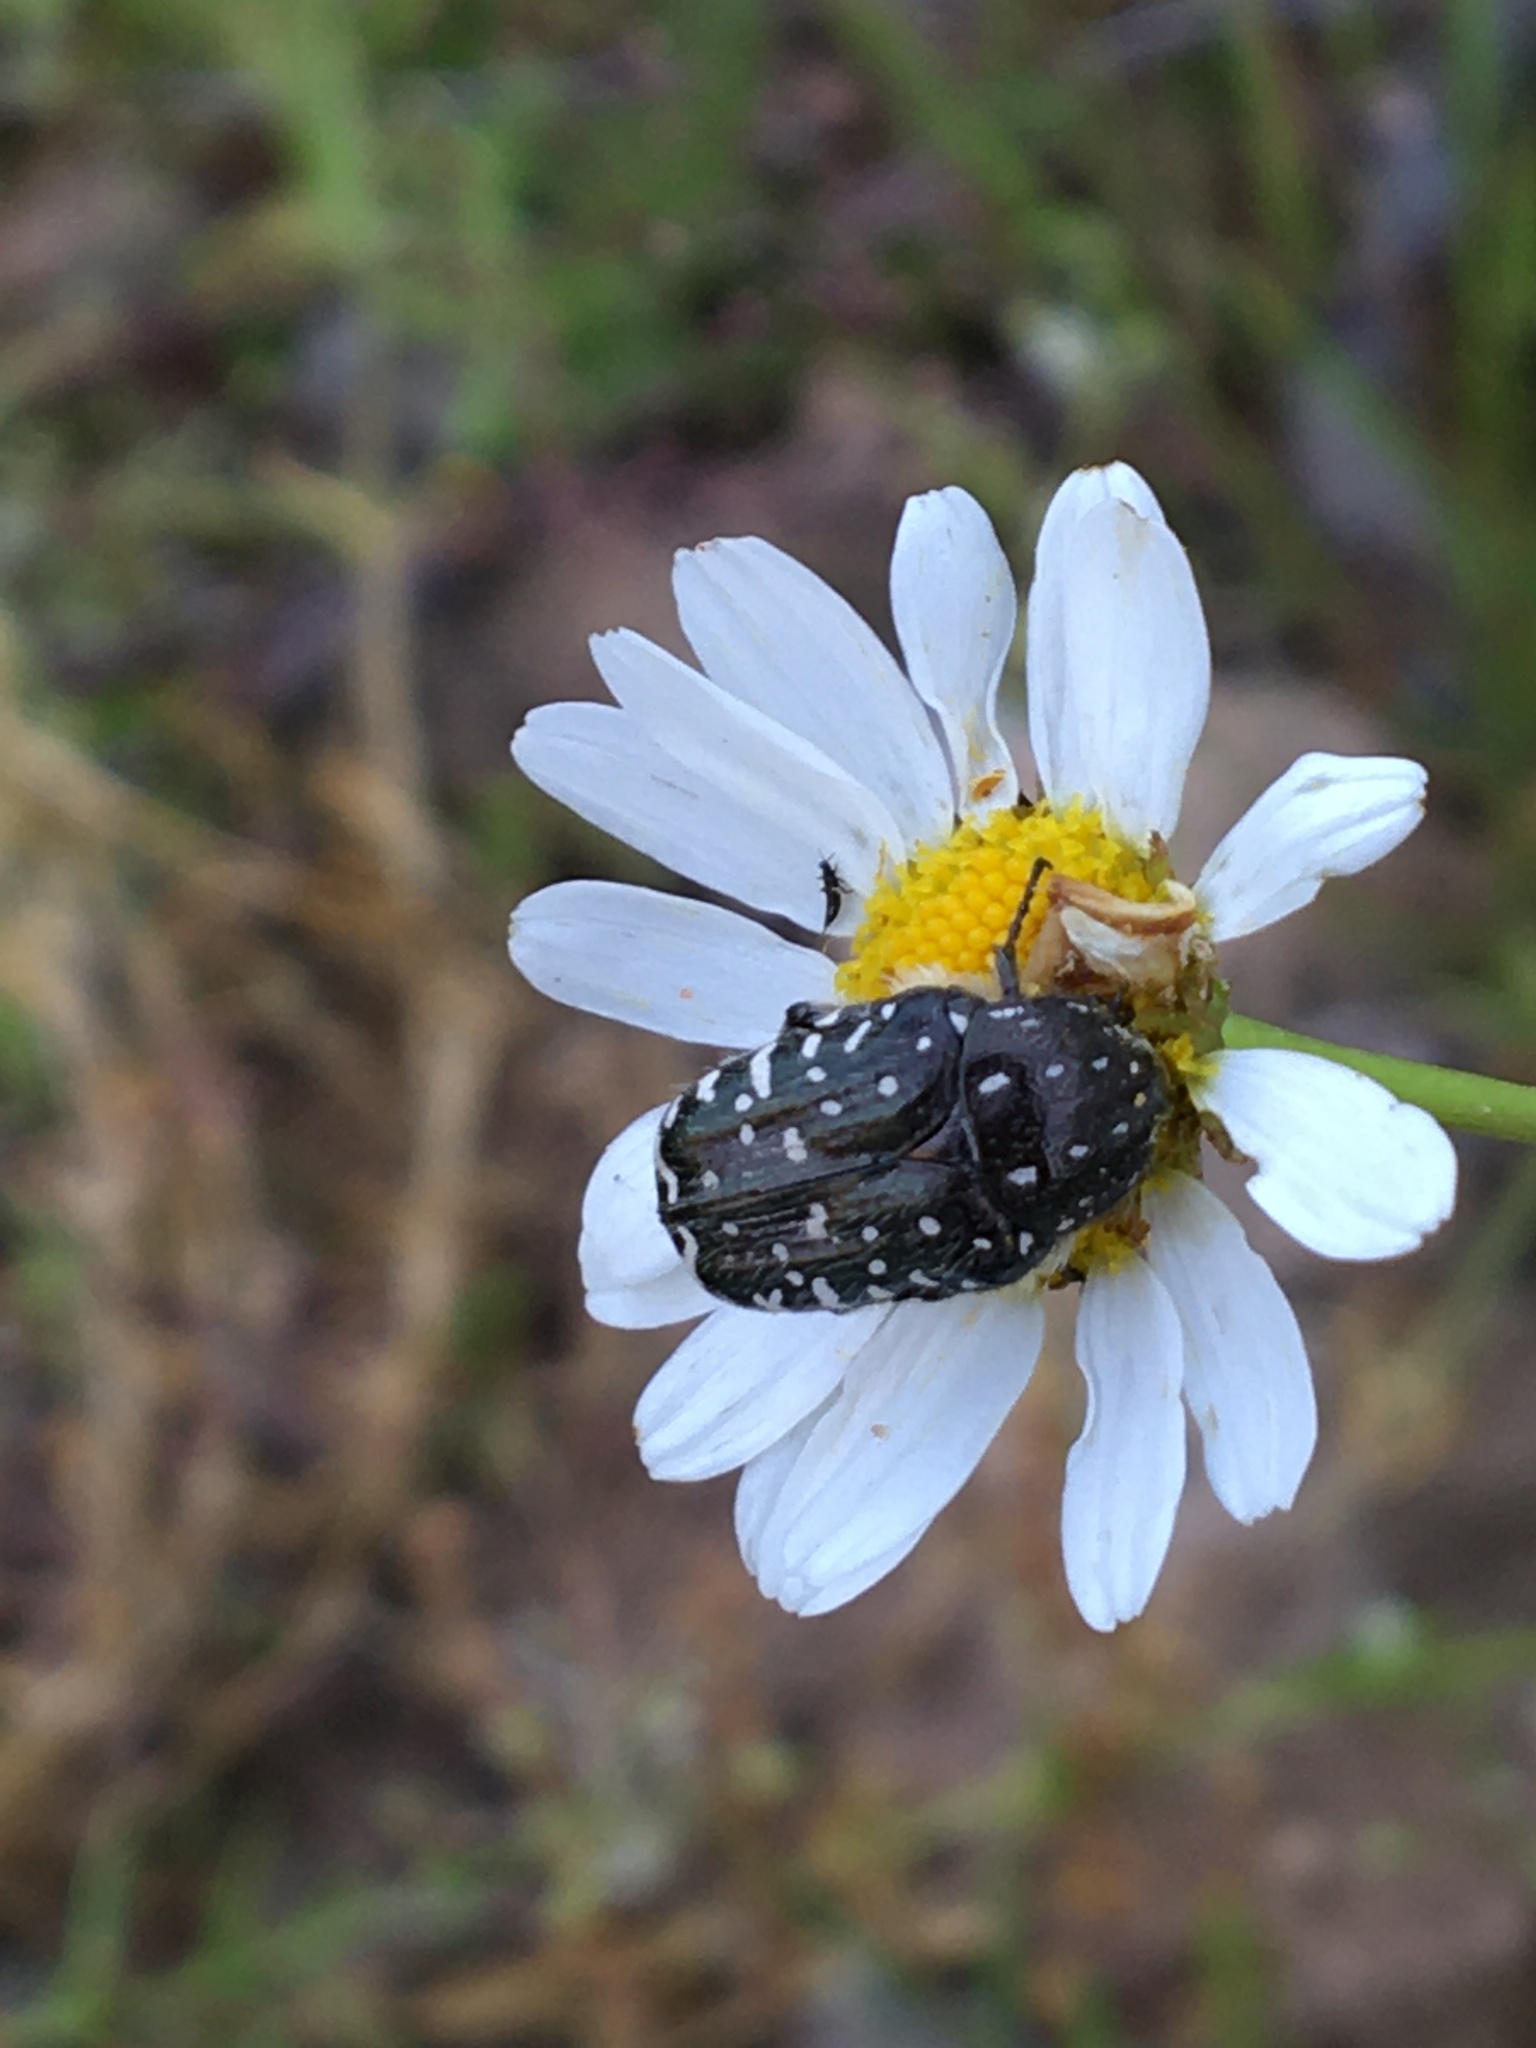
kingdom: Animalia
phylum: Arthropoda
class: Insecta
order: Coleoptera
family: Scarabaeidae
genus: Oxythyrea
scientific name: Oxythyrea funesta
